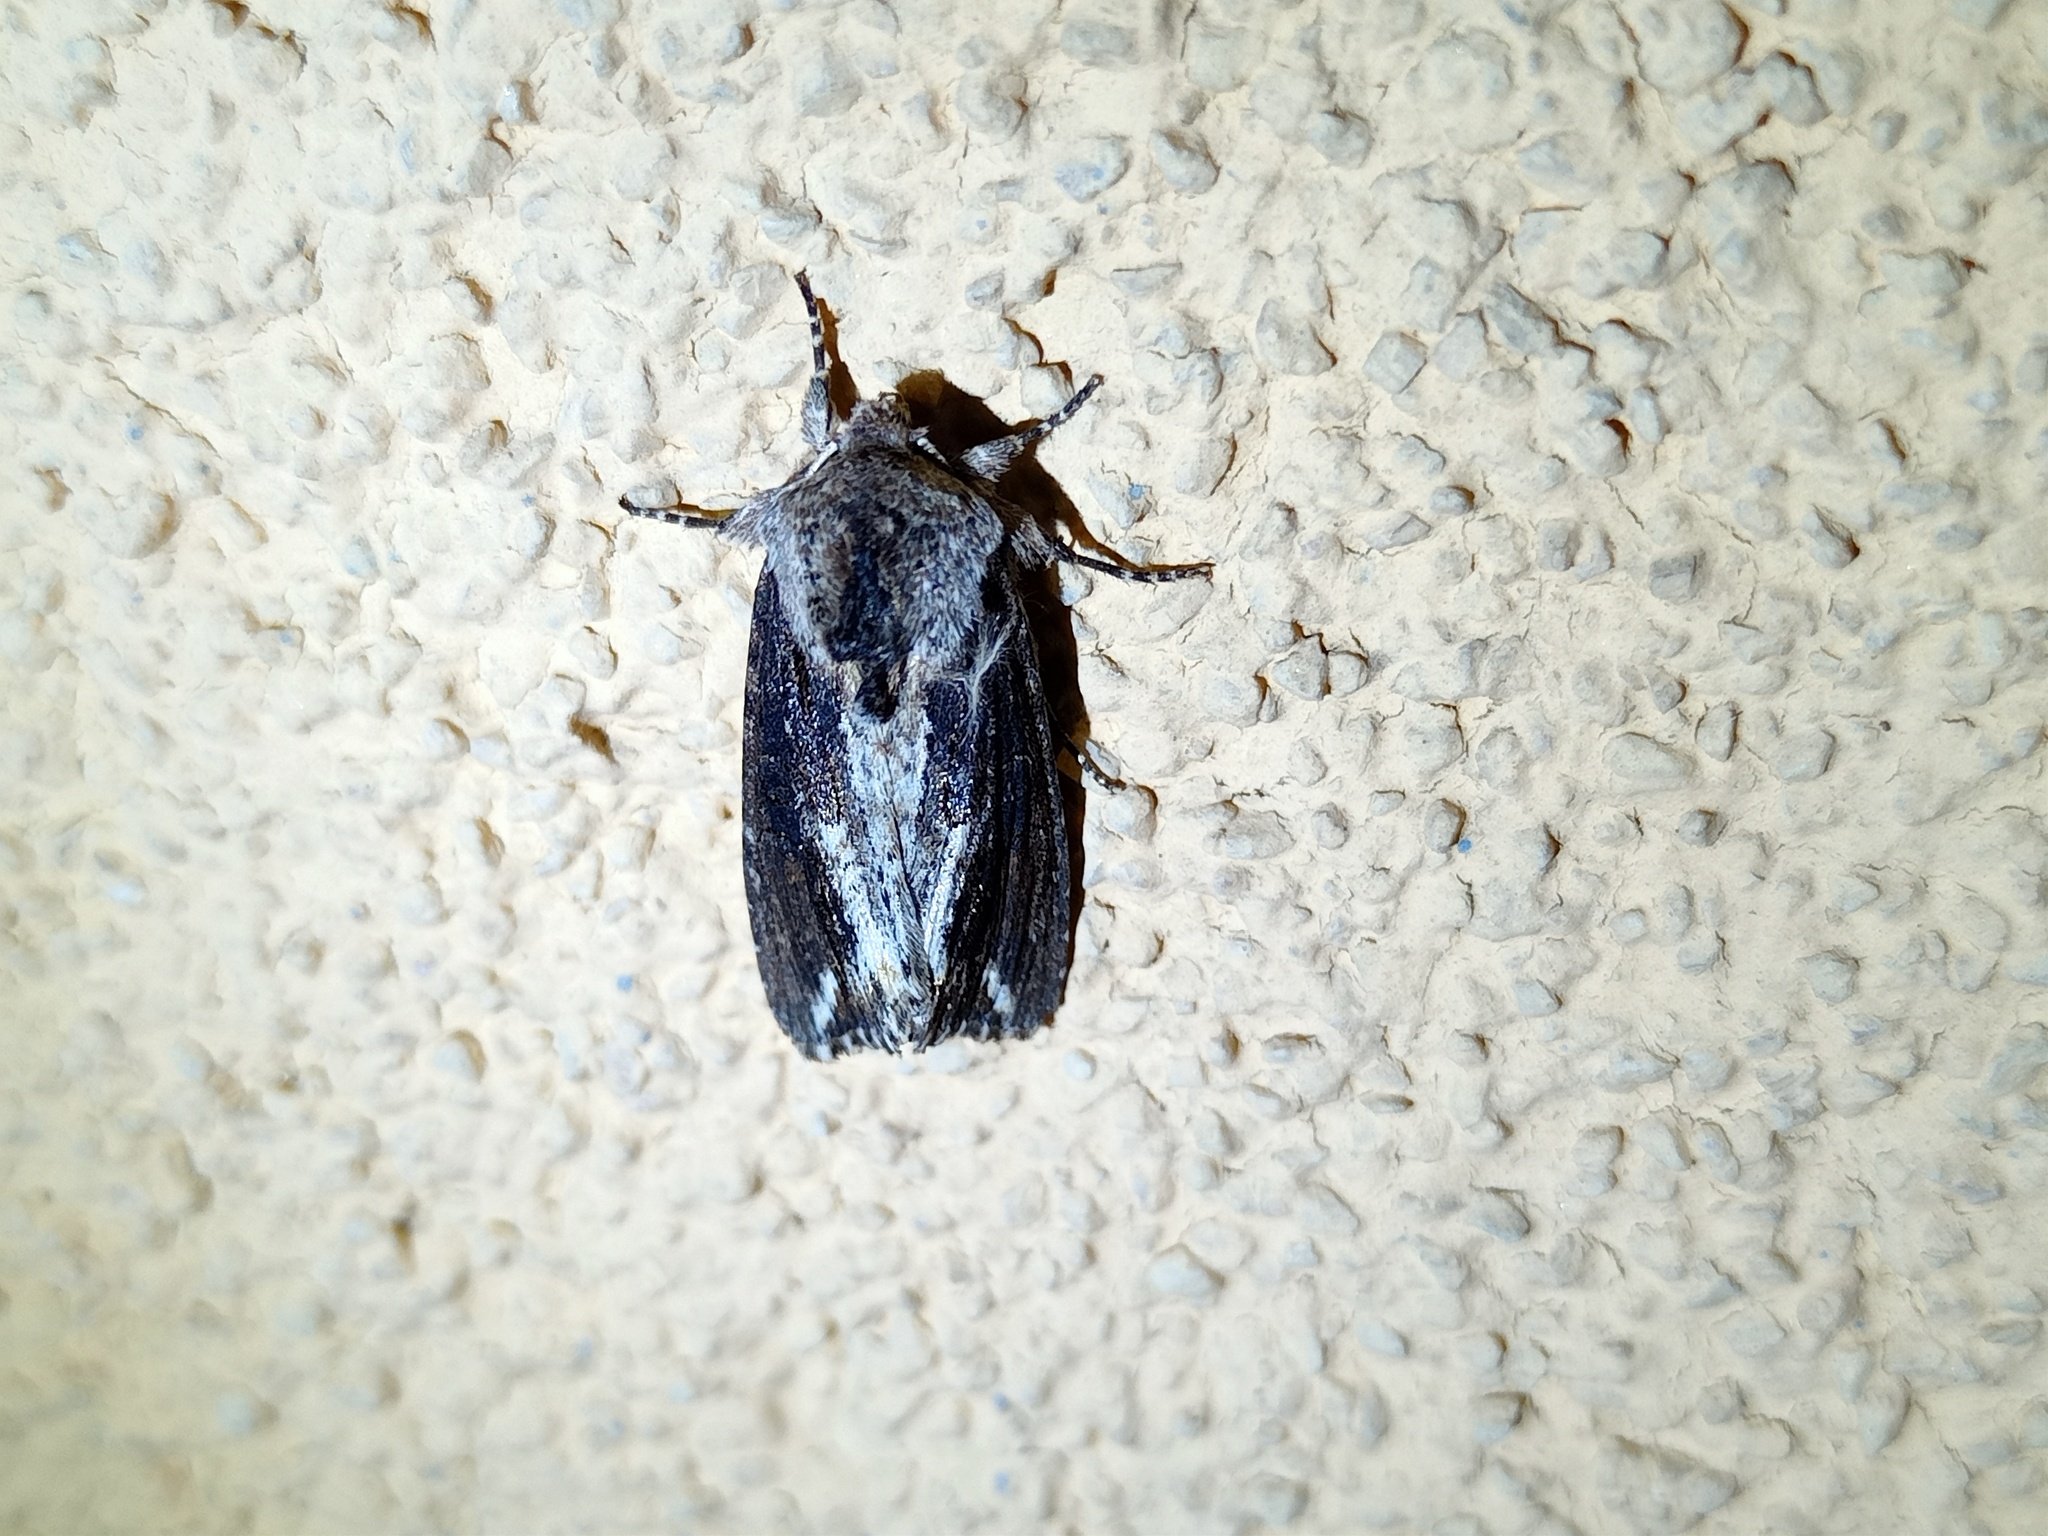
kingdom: Animalia
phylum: Arthropoda
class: Insecta
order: Lepidoptera
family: Noctuidae
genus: Egira
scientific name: Egira conspicillaris
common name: Silver cloud
